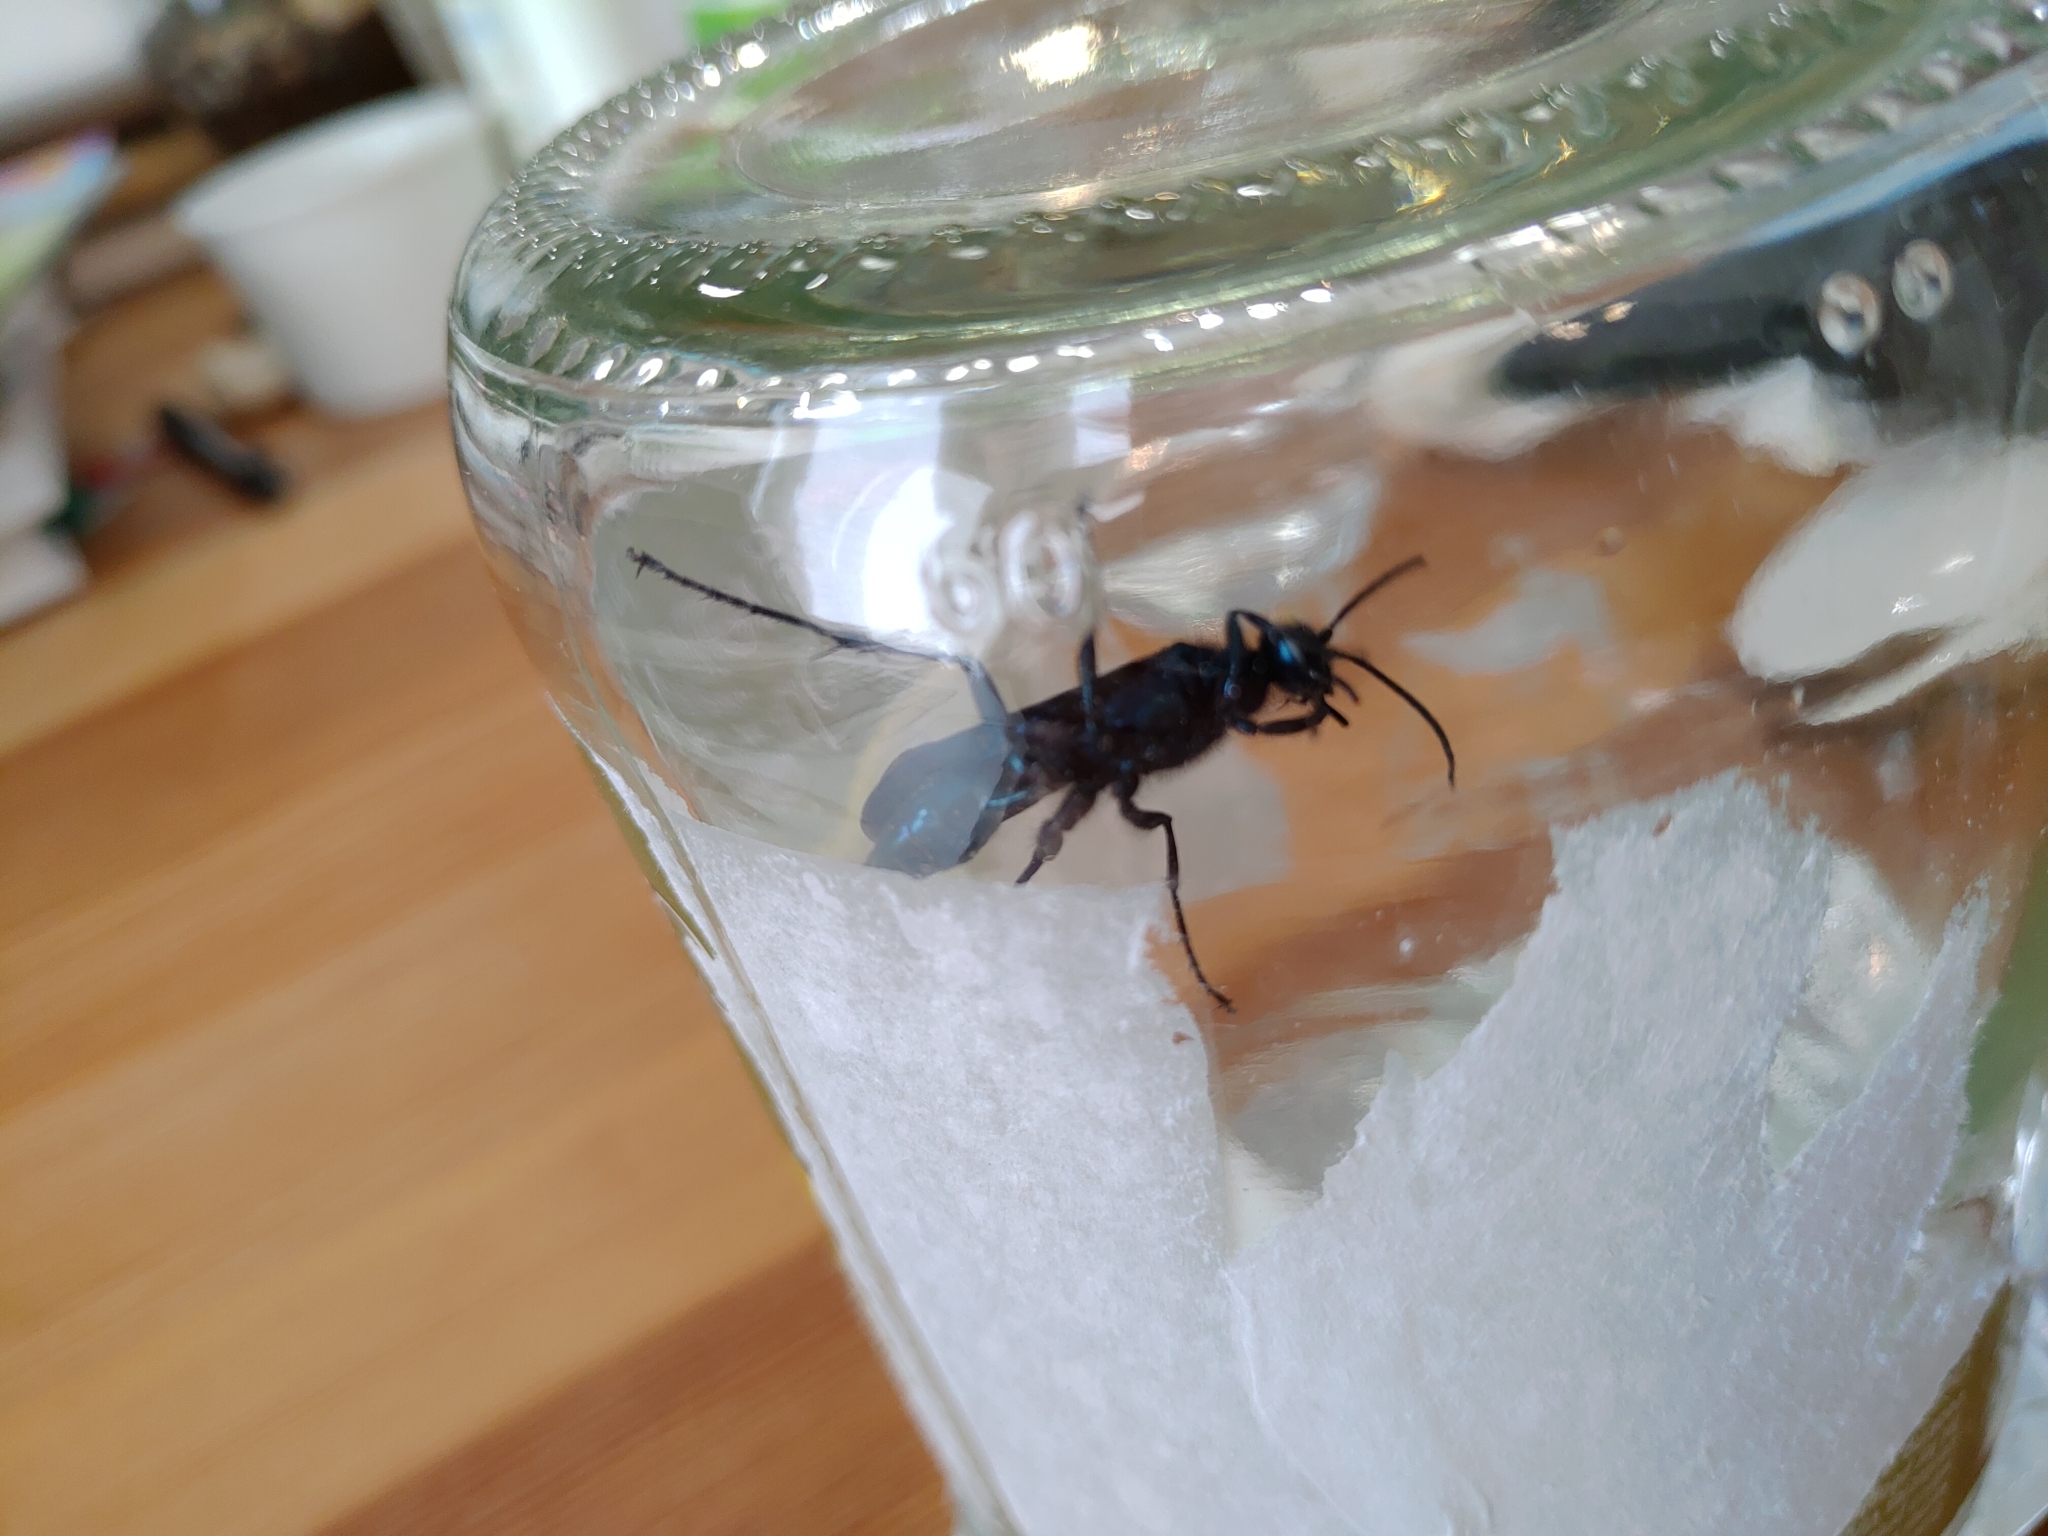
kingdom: Animalia
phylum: Arthropoda
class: Insecta
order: Hymenoptera
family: Sphecidae
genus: Chalybion
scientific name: Chalybion californicum
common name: Mud dauber
